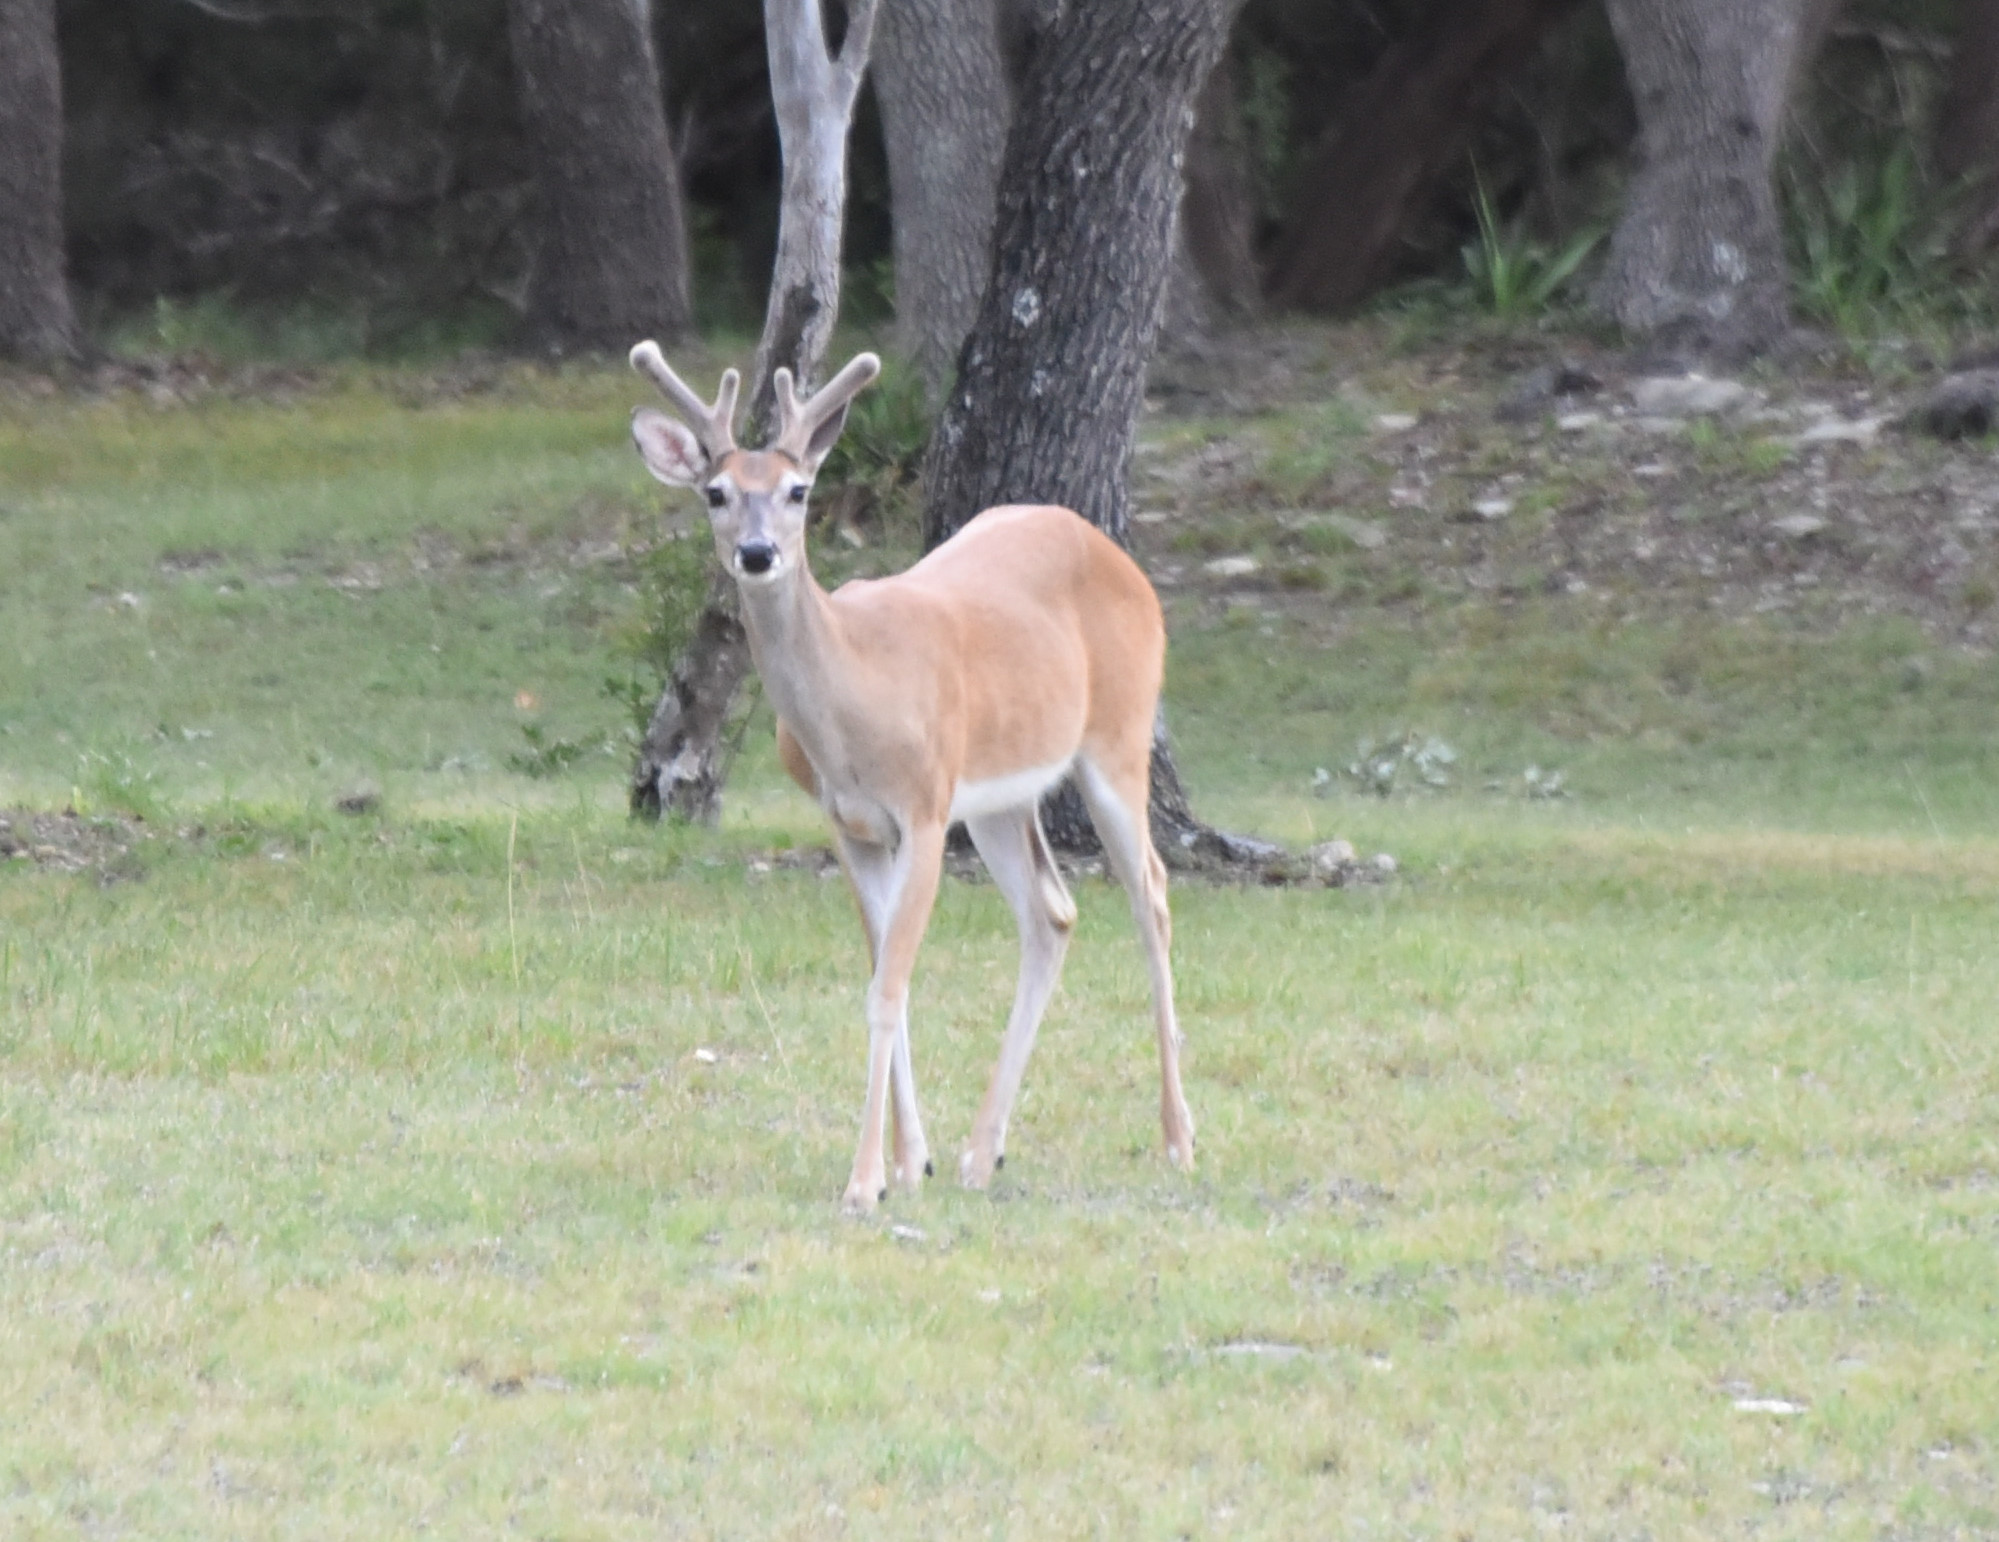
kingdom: Animalia
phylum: Chordata
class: Mammalia
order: Artiodactyla
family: Cervidae
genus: Odocoileus
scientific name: Odocoileus virginianus
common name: White-tailed deer
